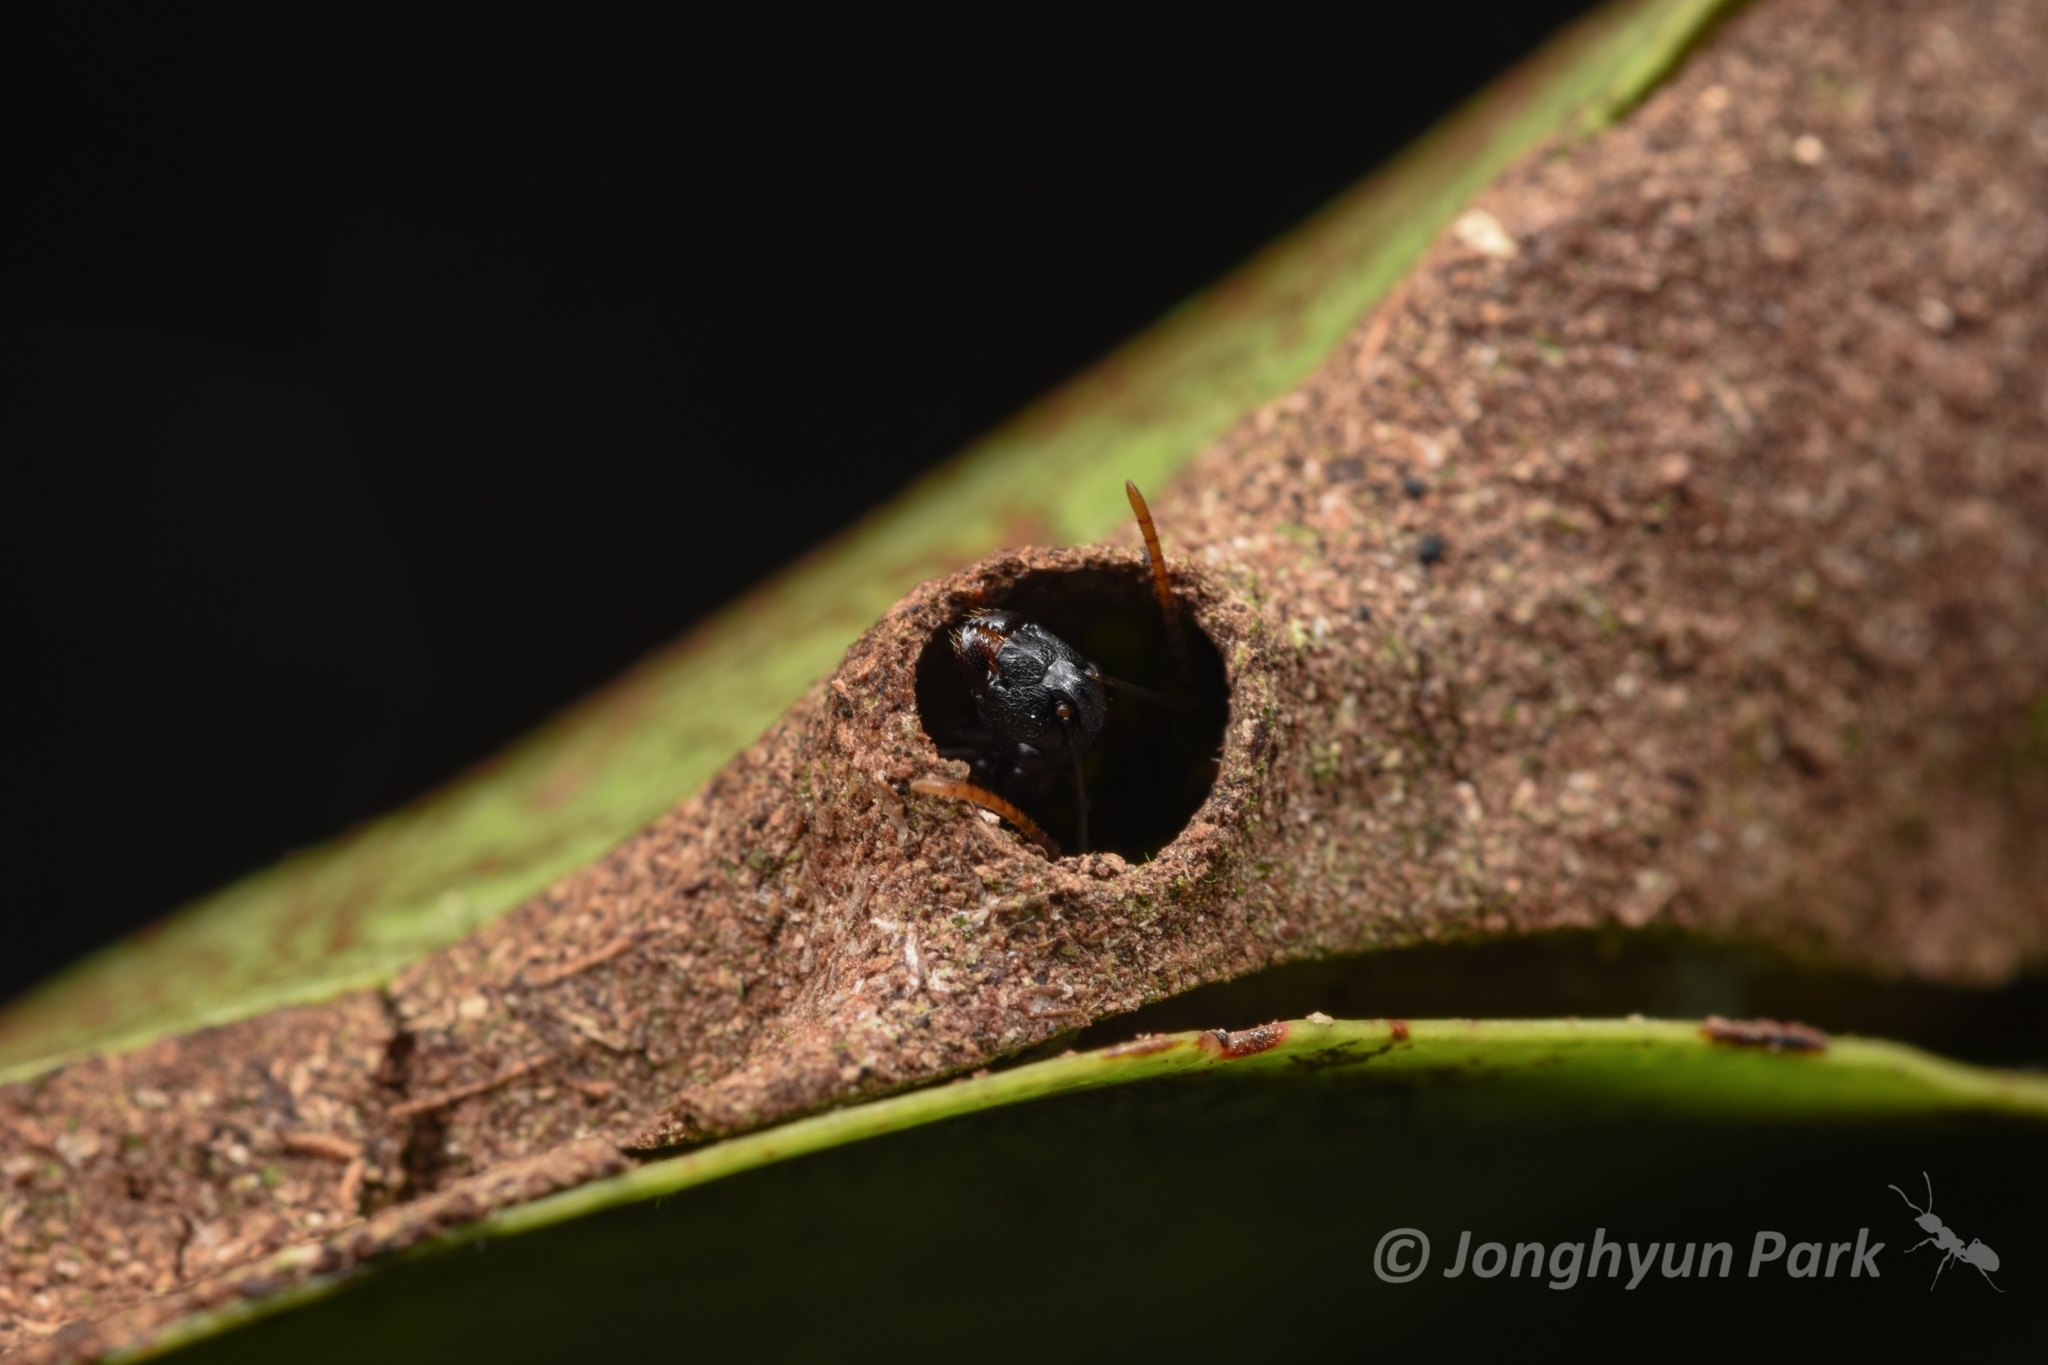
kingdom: Animalia
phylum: Arthropoda
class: Insecta
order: Hymenoptera
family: Formicidae
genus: Polyrhachis
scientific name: Polyrhachis yarrabahensis
